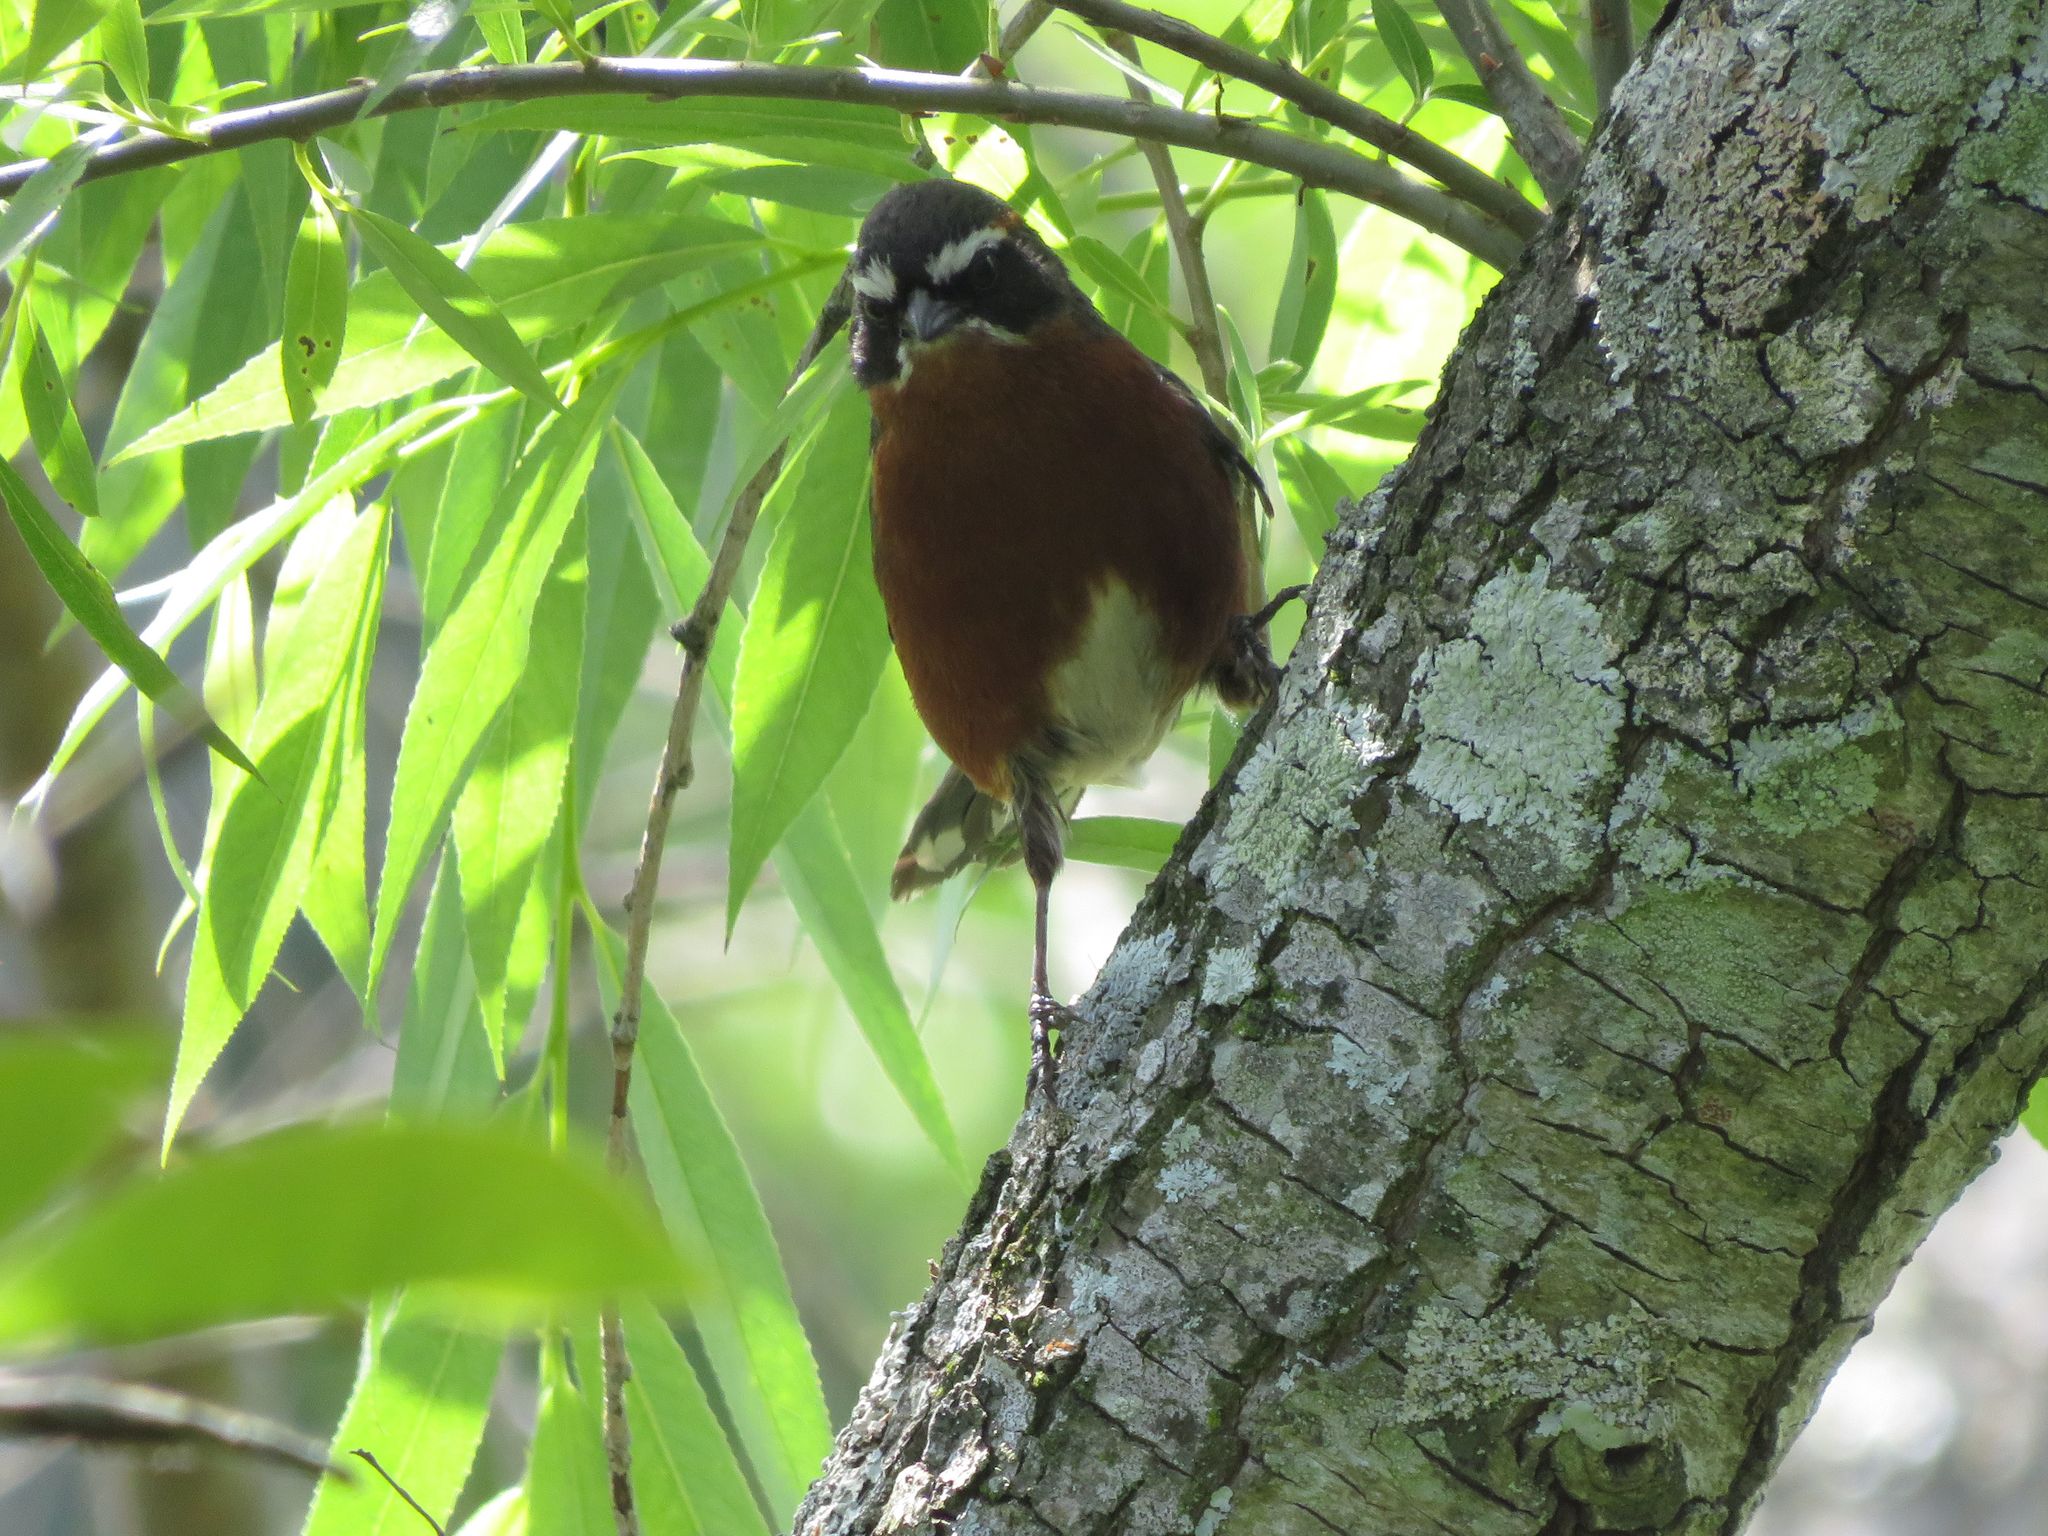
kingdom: Animalia
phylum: Chordata
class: Aves
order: Passeriformes
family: Thraupidae
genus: Poospiza
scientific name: Poospiza nigrorufa
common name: Black-and-rufous warbling finch
